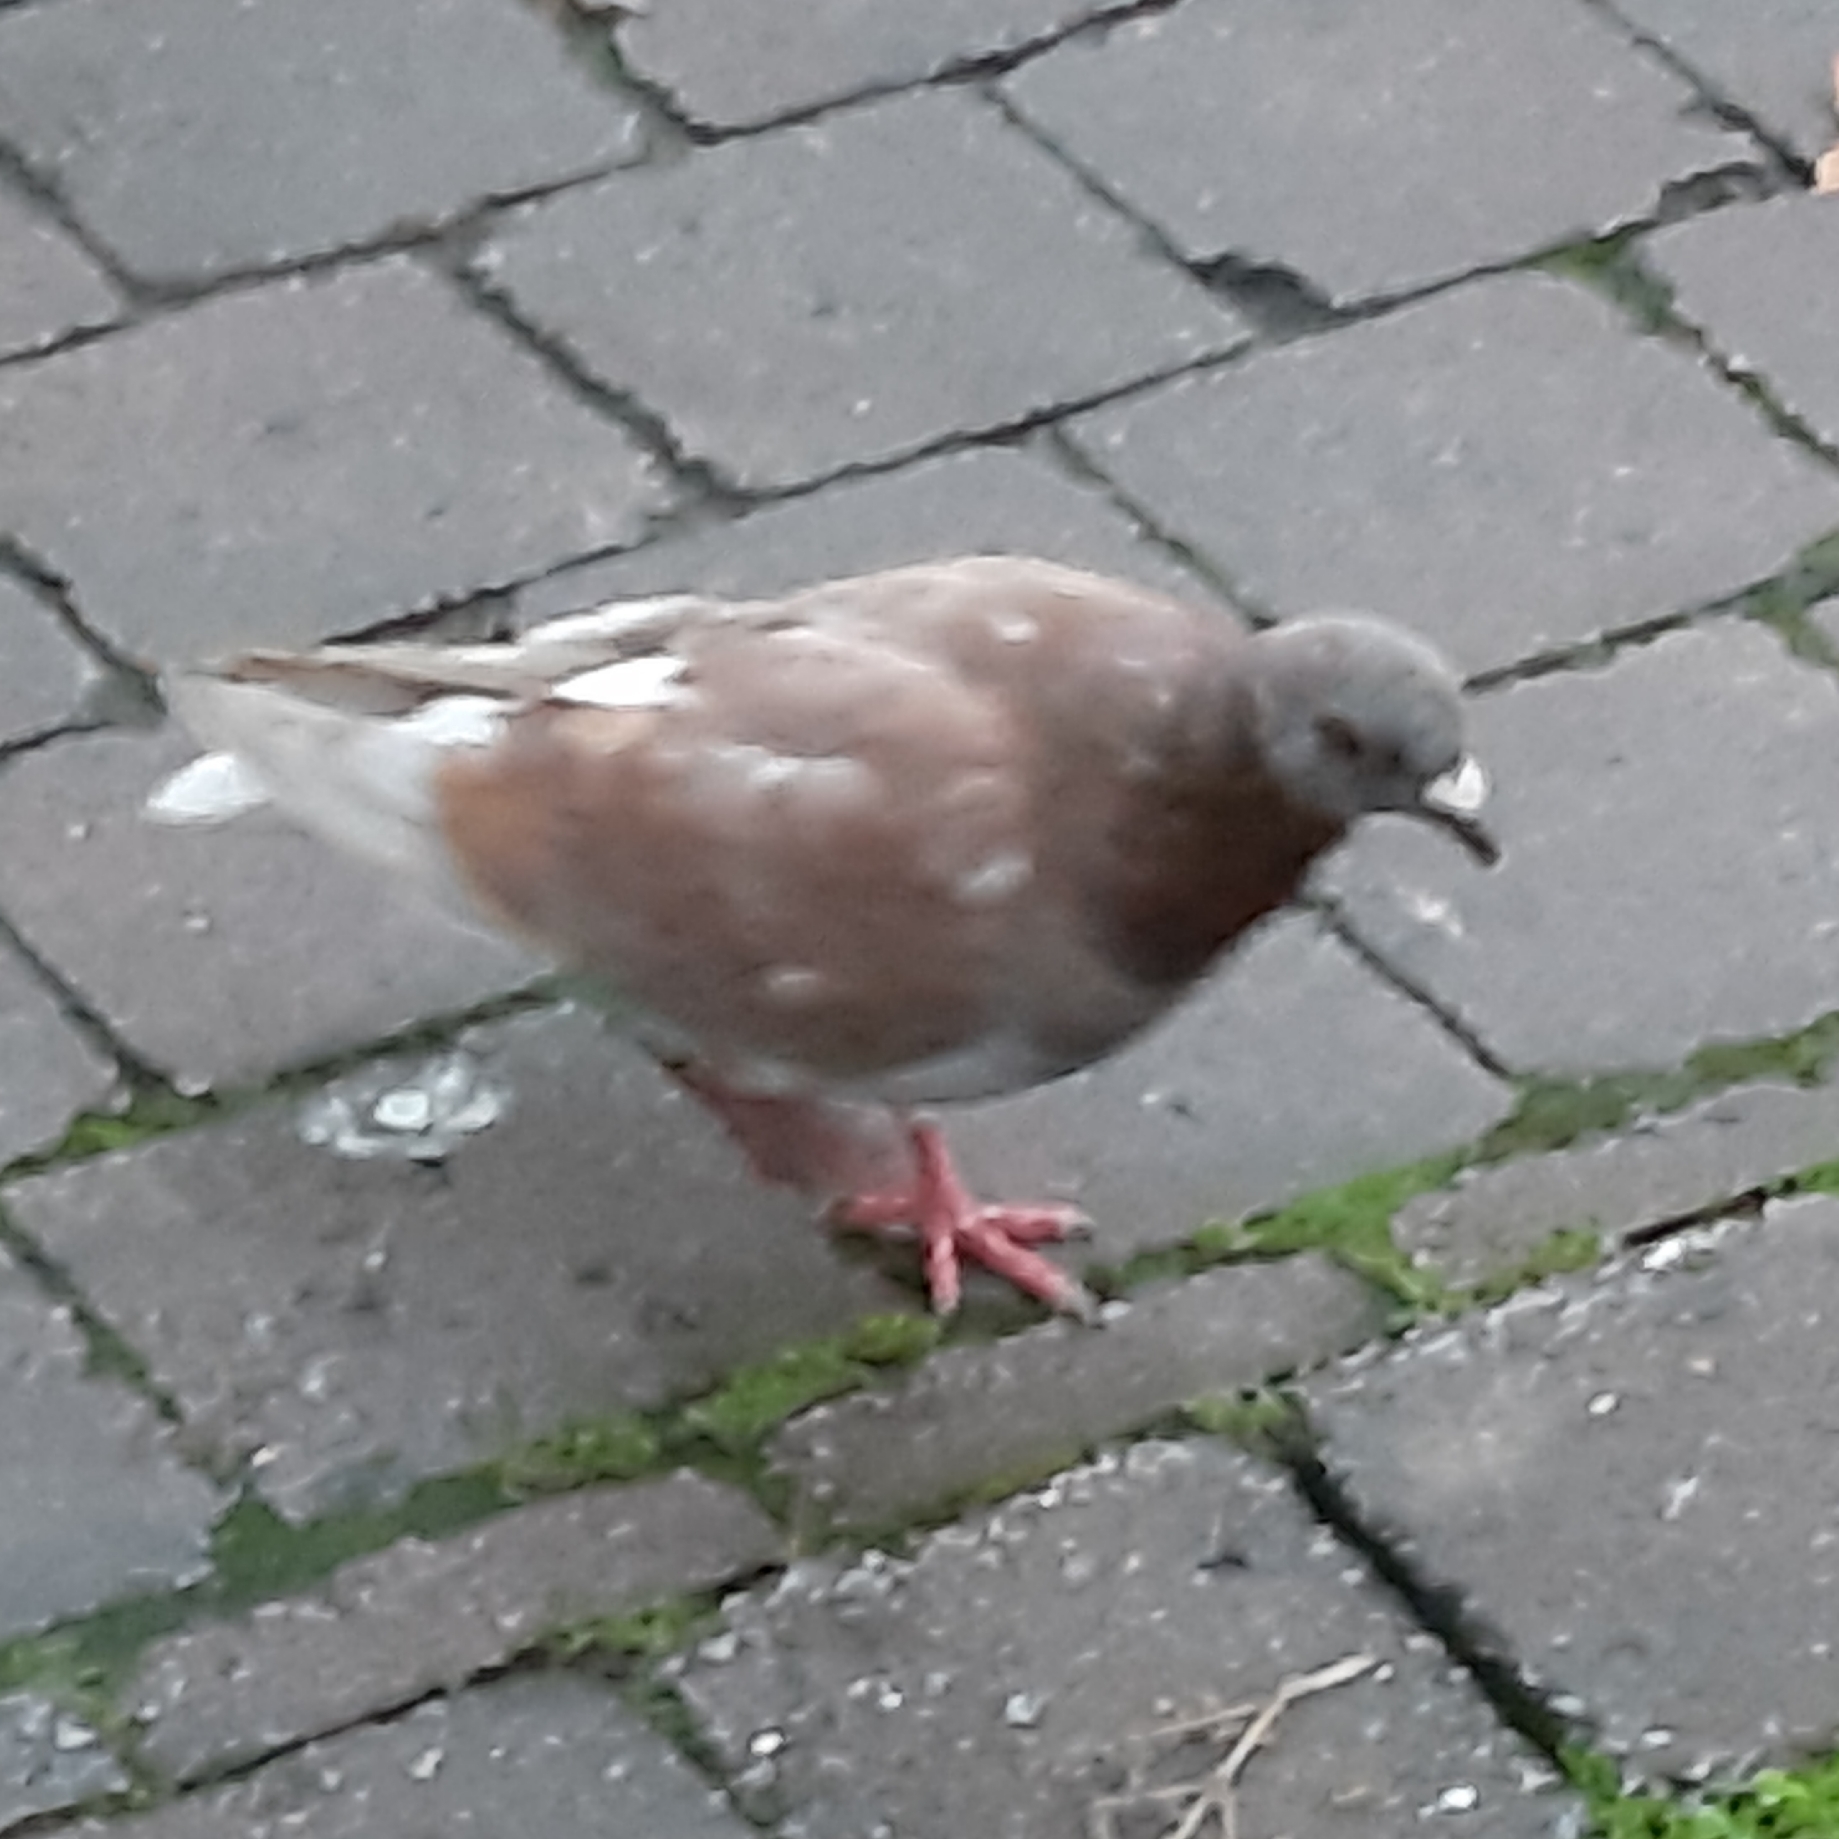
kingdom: Animalia
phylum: Chordata
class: Aves
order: Columbiformes
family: Columbidae
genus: Columba
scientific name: Columba livia
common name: Rock pigeon
